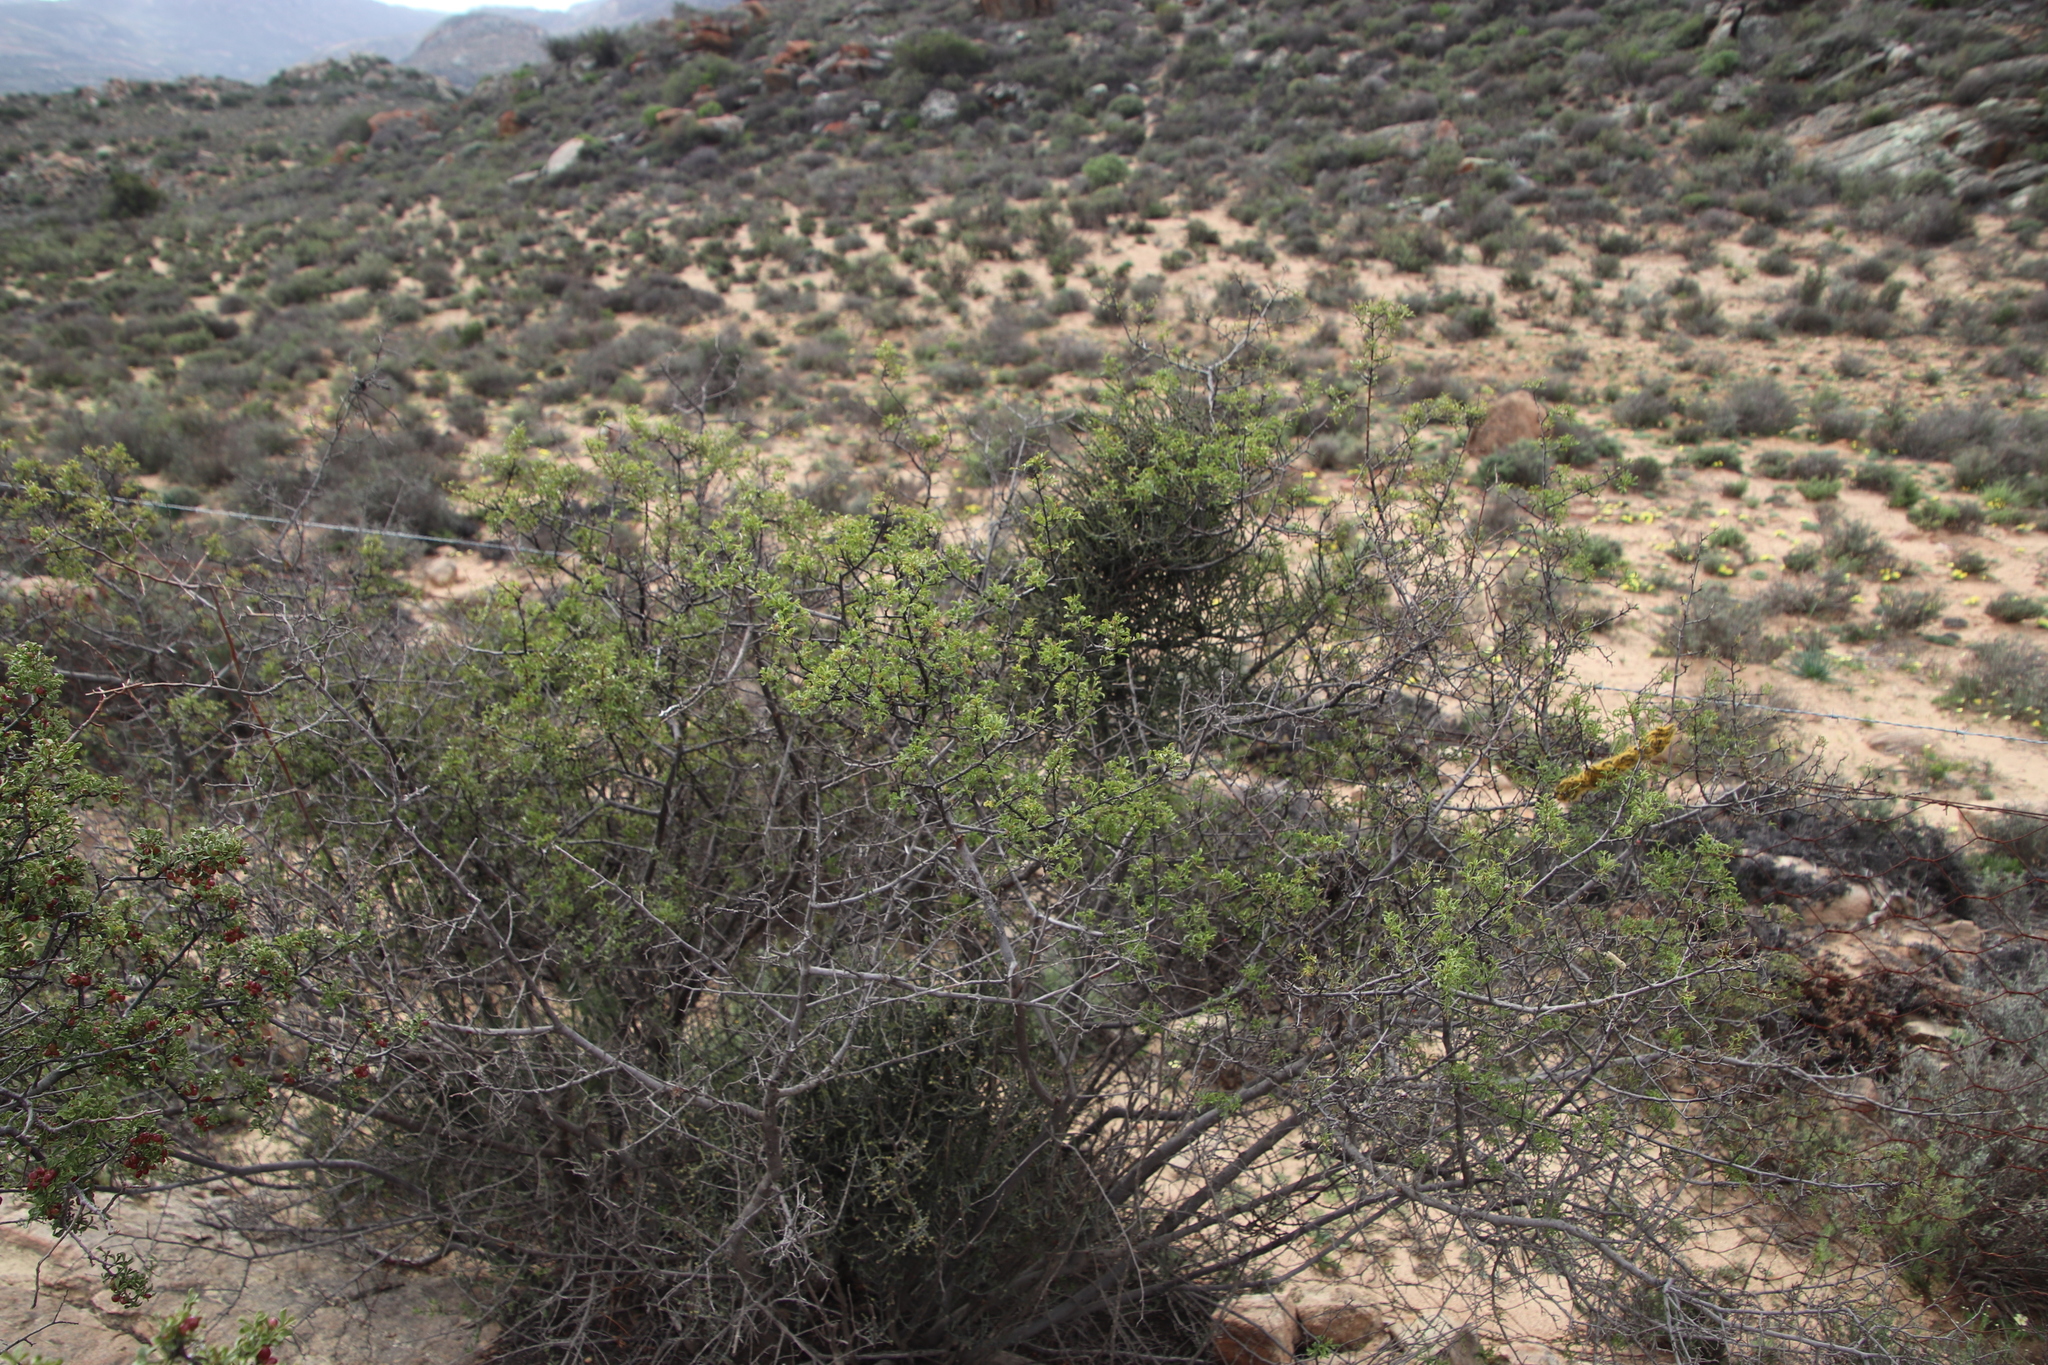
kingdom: Plantae
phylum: Tracheophyta
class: Magnoliopsida
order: Sapindales
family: Anacardiaceae
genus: Searsia
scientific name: Searsia undulata
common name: Namaqua kunibush
